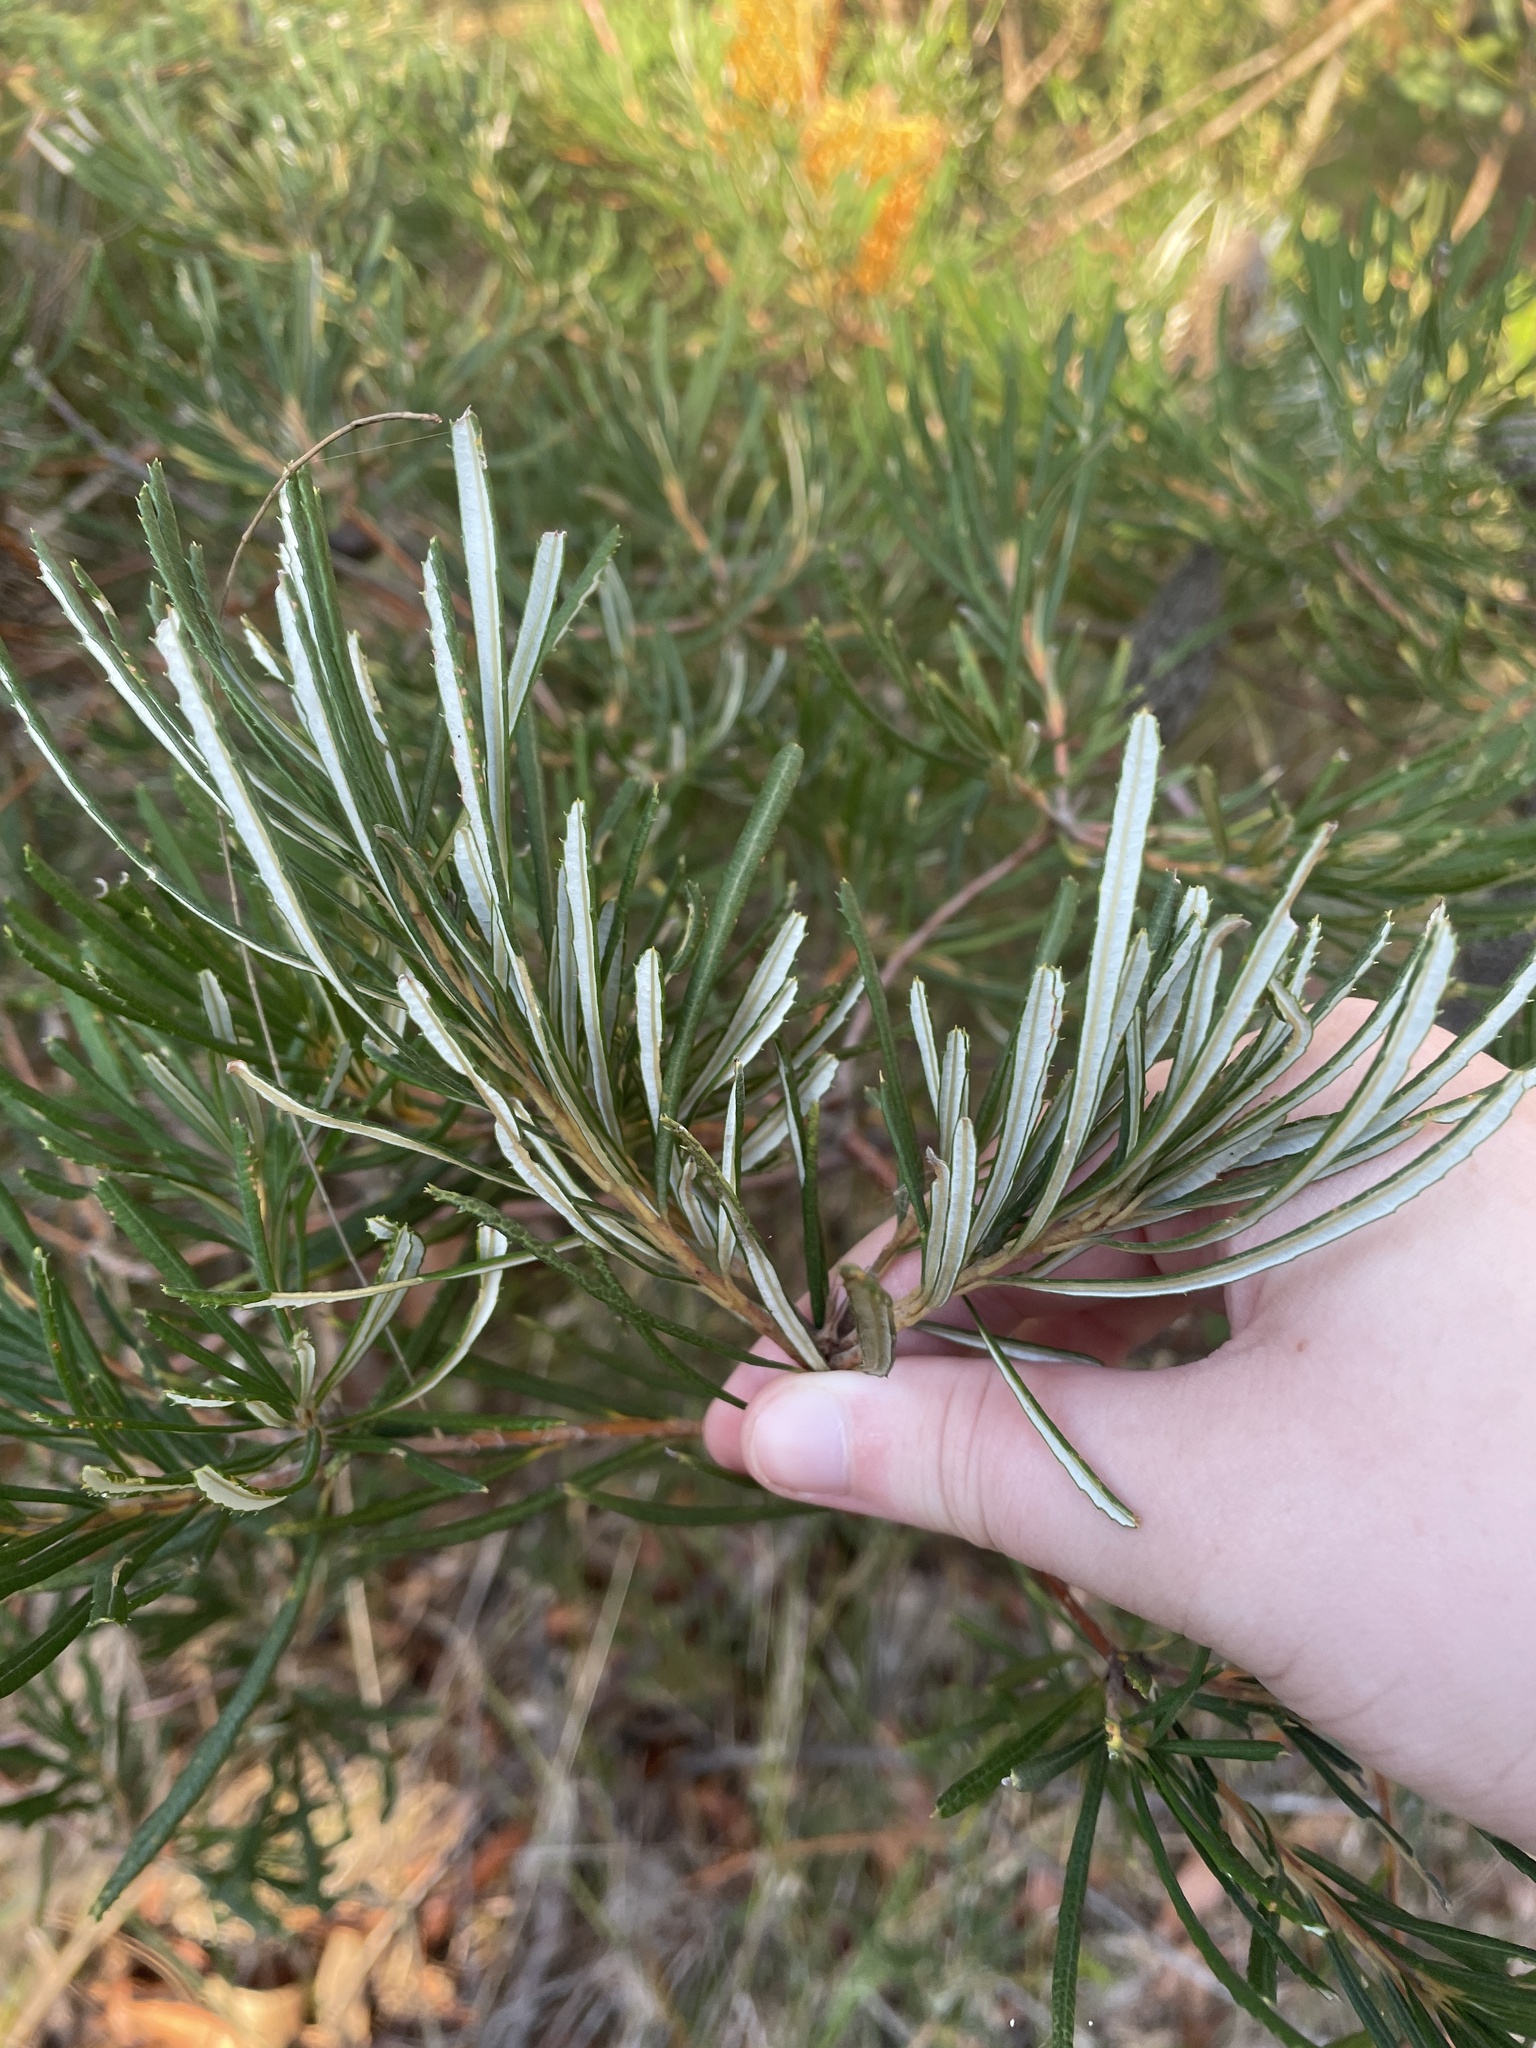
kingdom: Plantae
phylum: Tracheophyta
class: Magnoliopsida
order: Proteales
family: Proteaceae
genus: Banksia
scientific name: Banksia spinulosa
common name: Hairpin banksia
